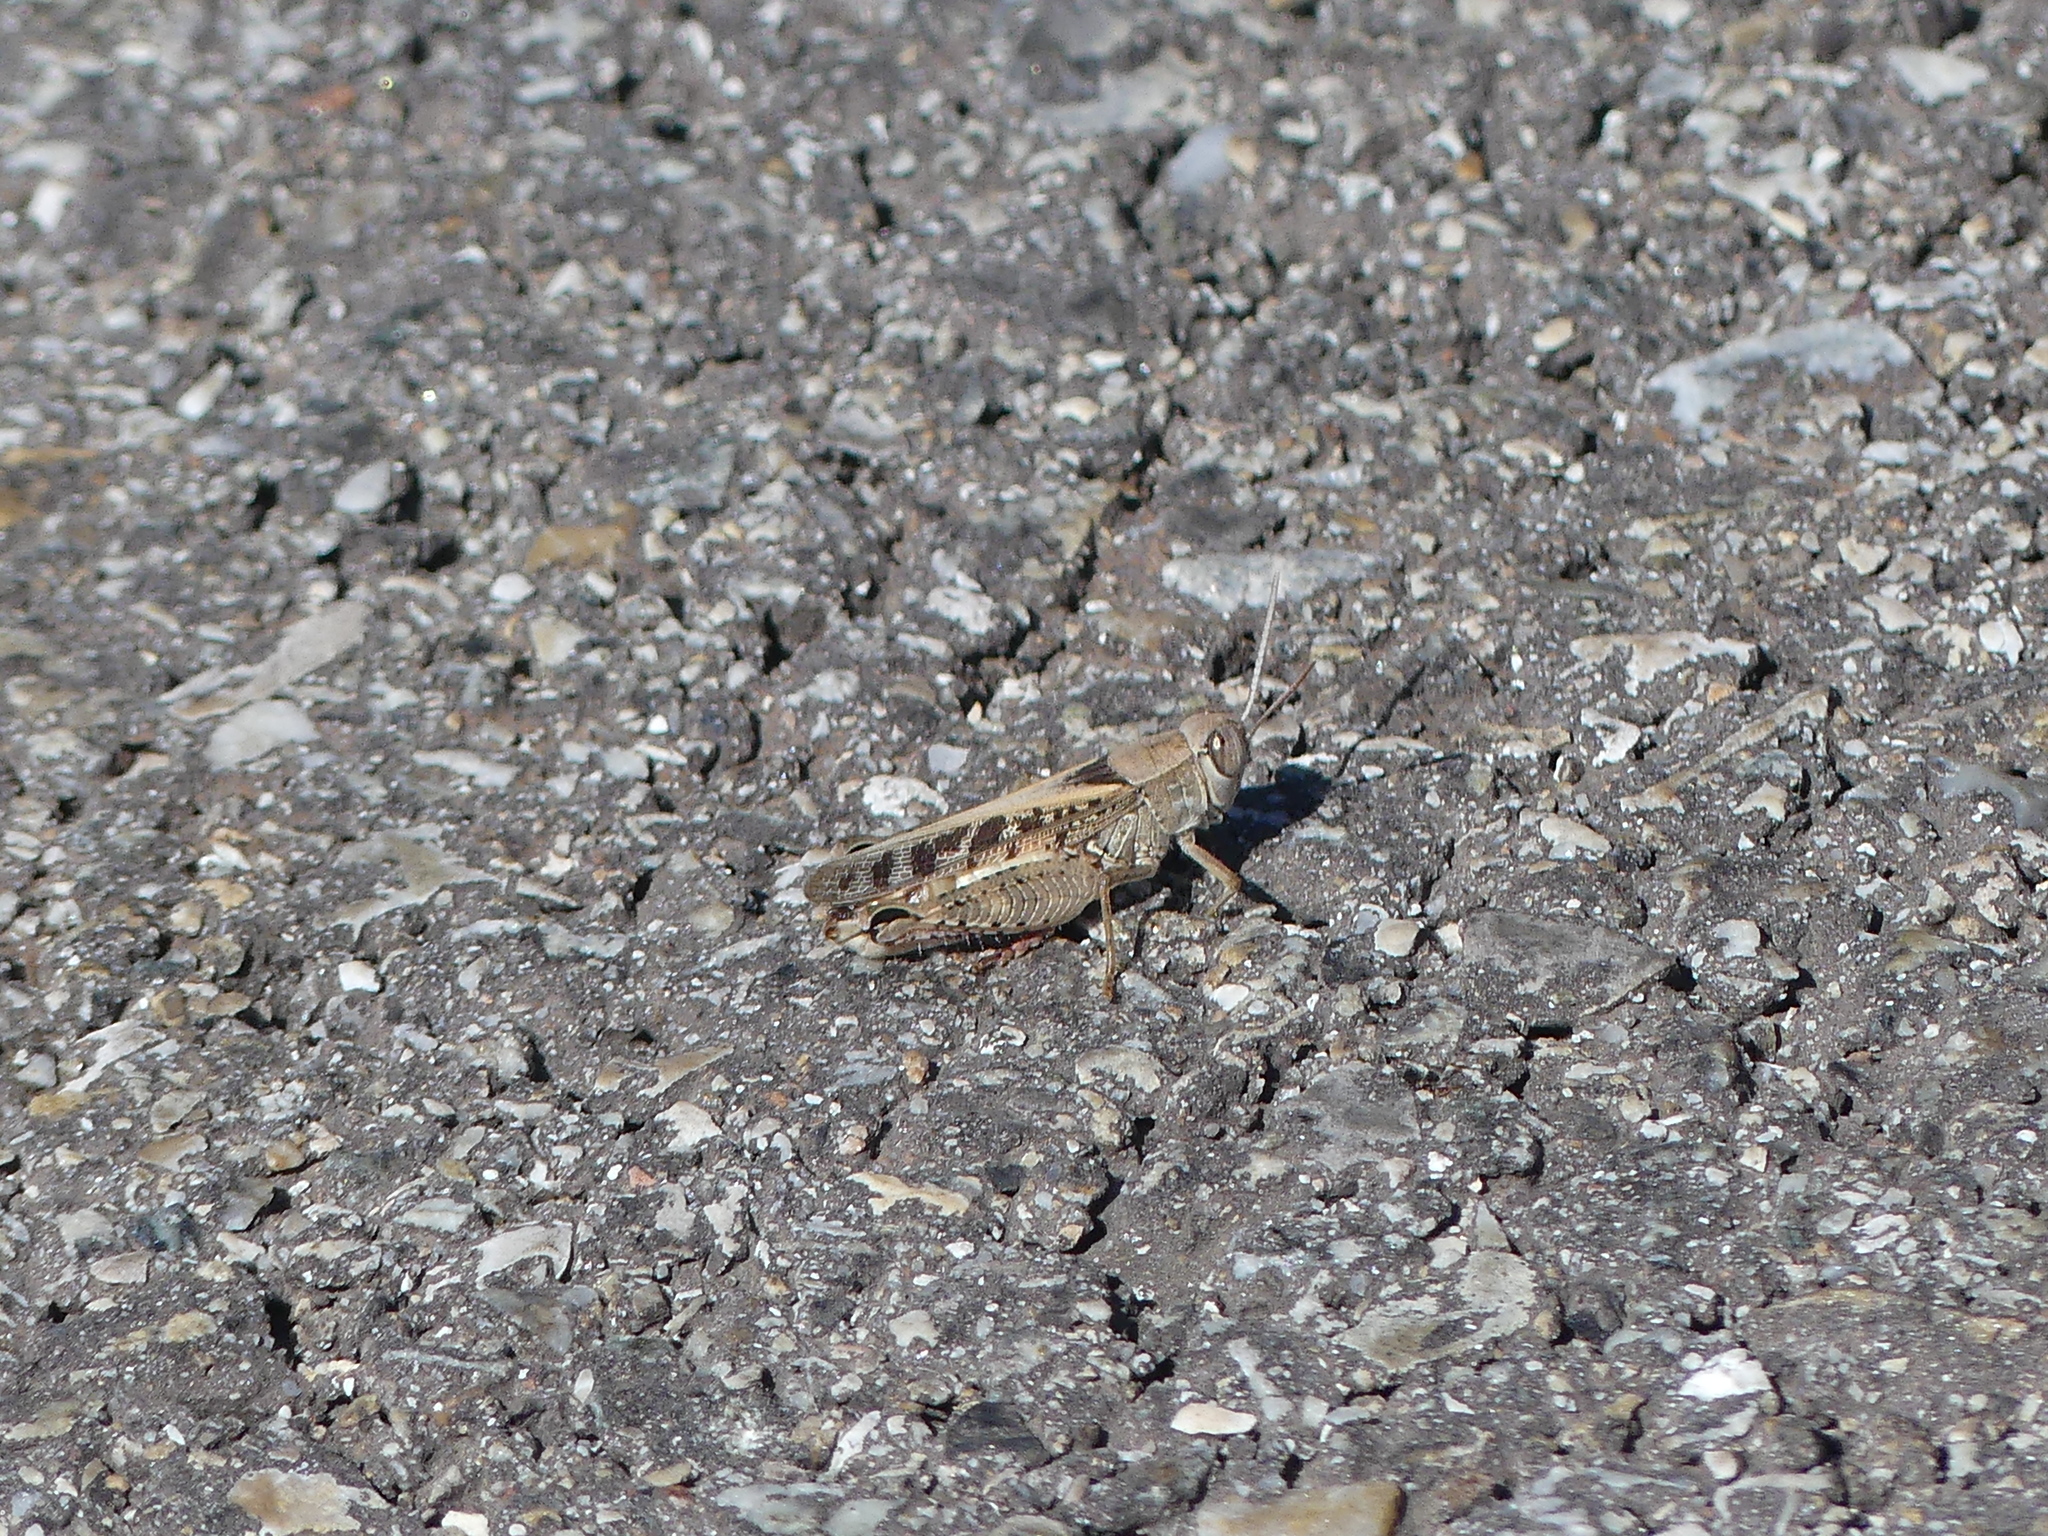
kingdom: Animalia
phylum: Arthropoda
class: Insecta
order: Orthoptera
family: Acrididae
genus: Calliptamus
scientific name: Calliptamus italicus
